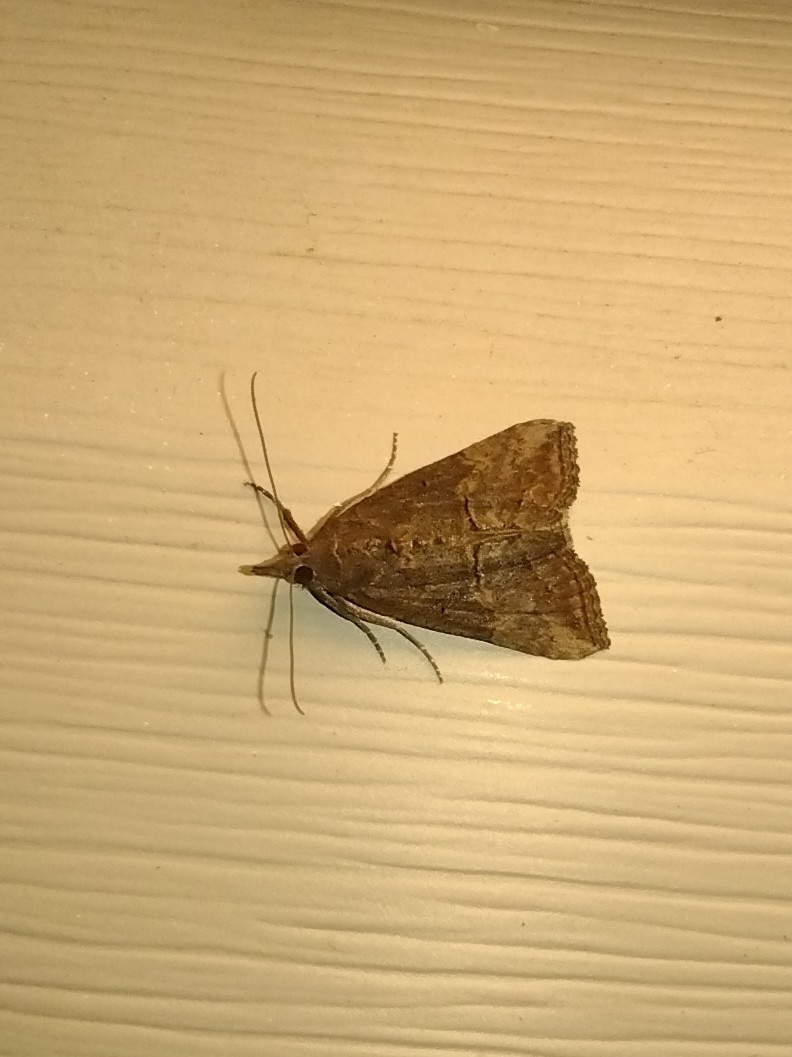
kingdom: Animalia
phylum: Arthropoda
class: Insecta
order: Lepidoptera
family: Erebidae
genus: Hypena
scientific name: Hypena scabra
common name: Green cloverworm
